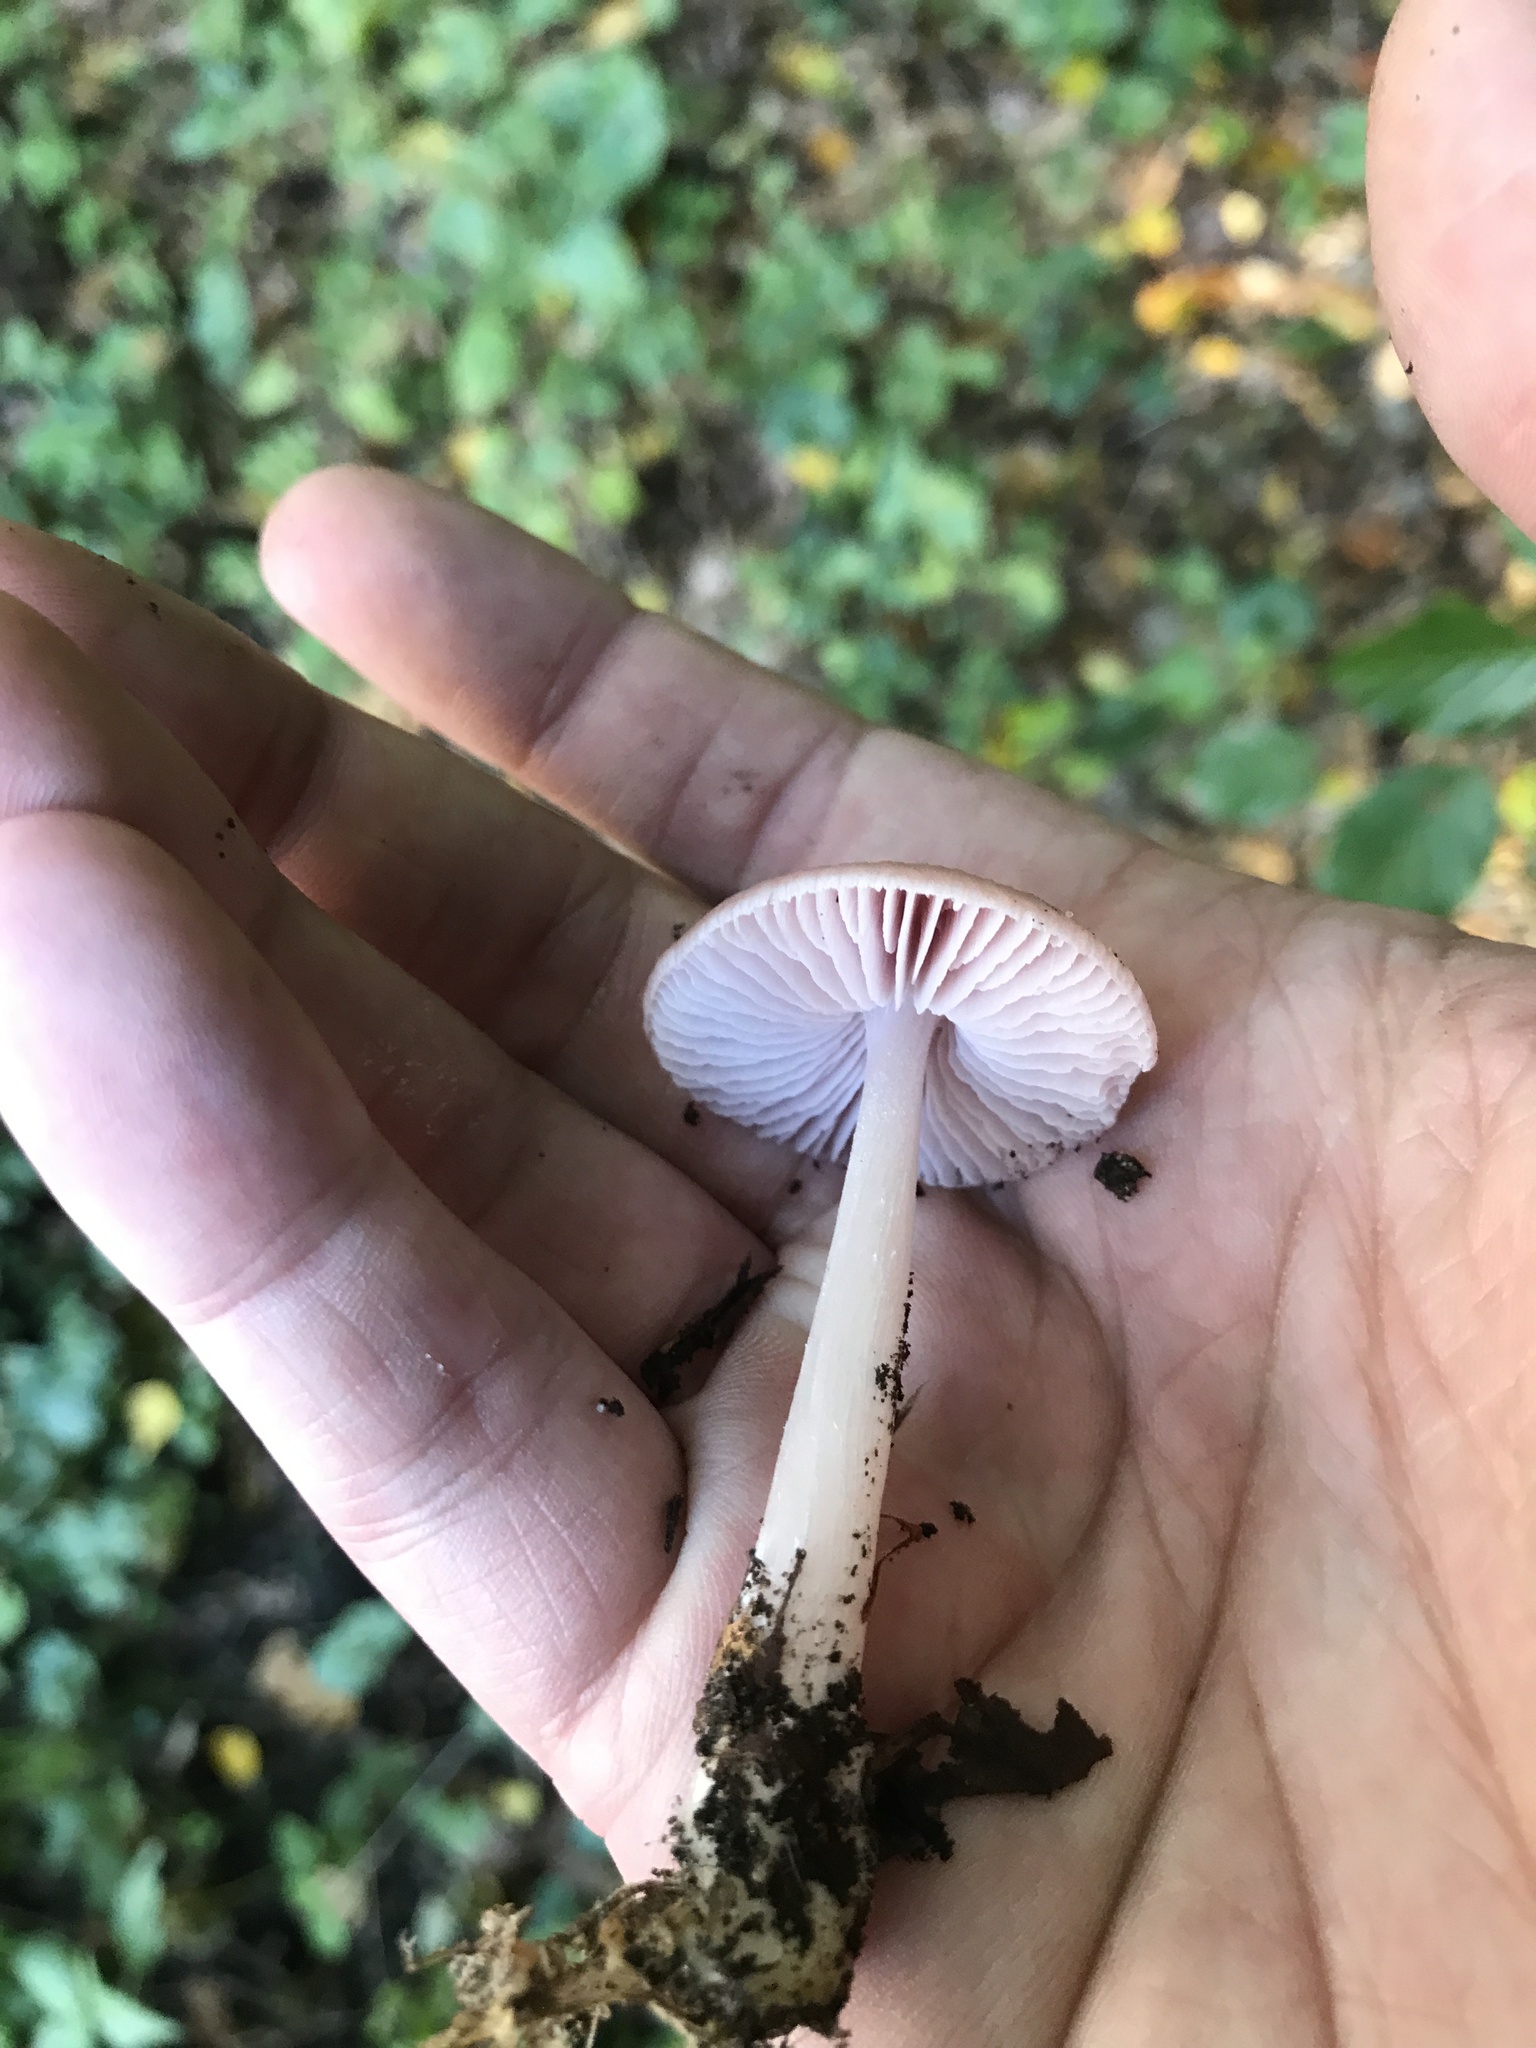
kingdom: Fungi
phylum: Basidiomycota
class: Agaricomycetes
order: Agaricales
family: Mycenaceae
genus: Mycena
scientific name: Mycena rosea
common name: Rosy bonnet
